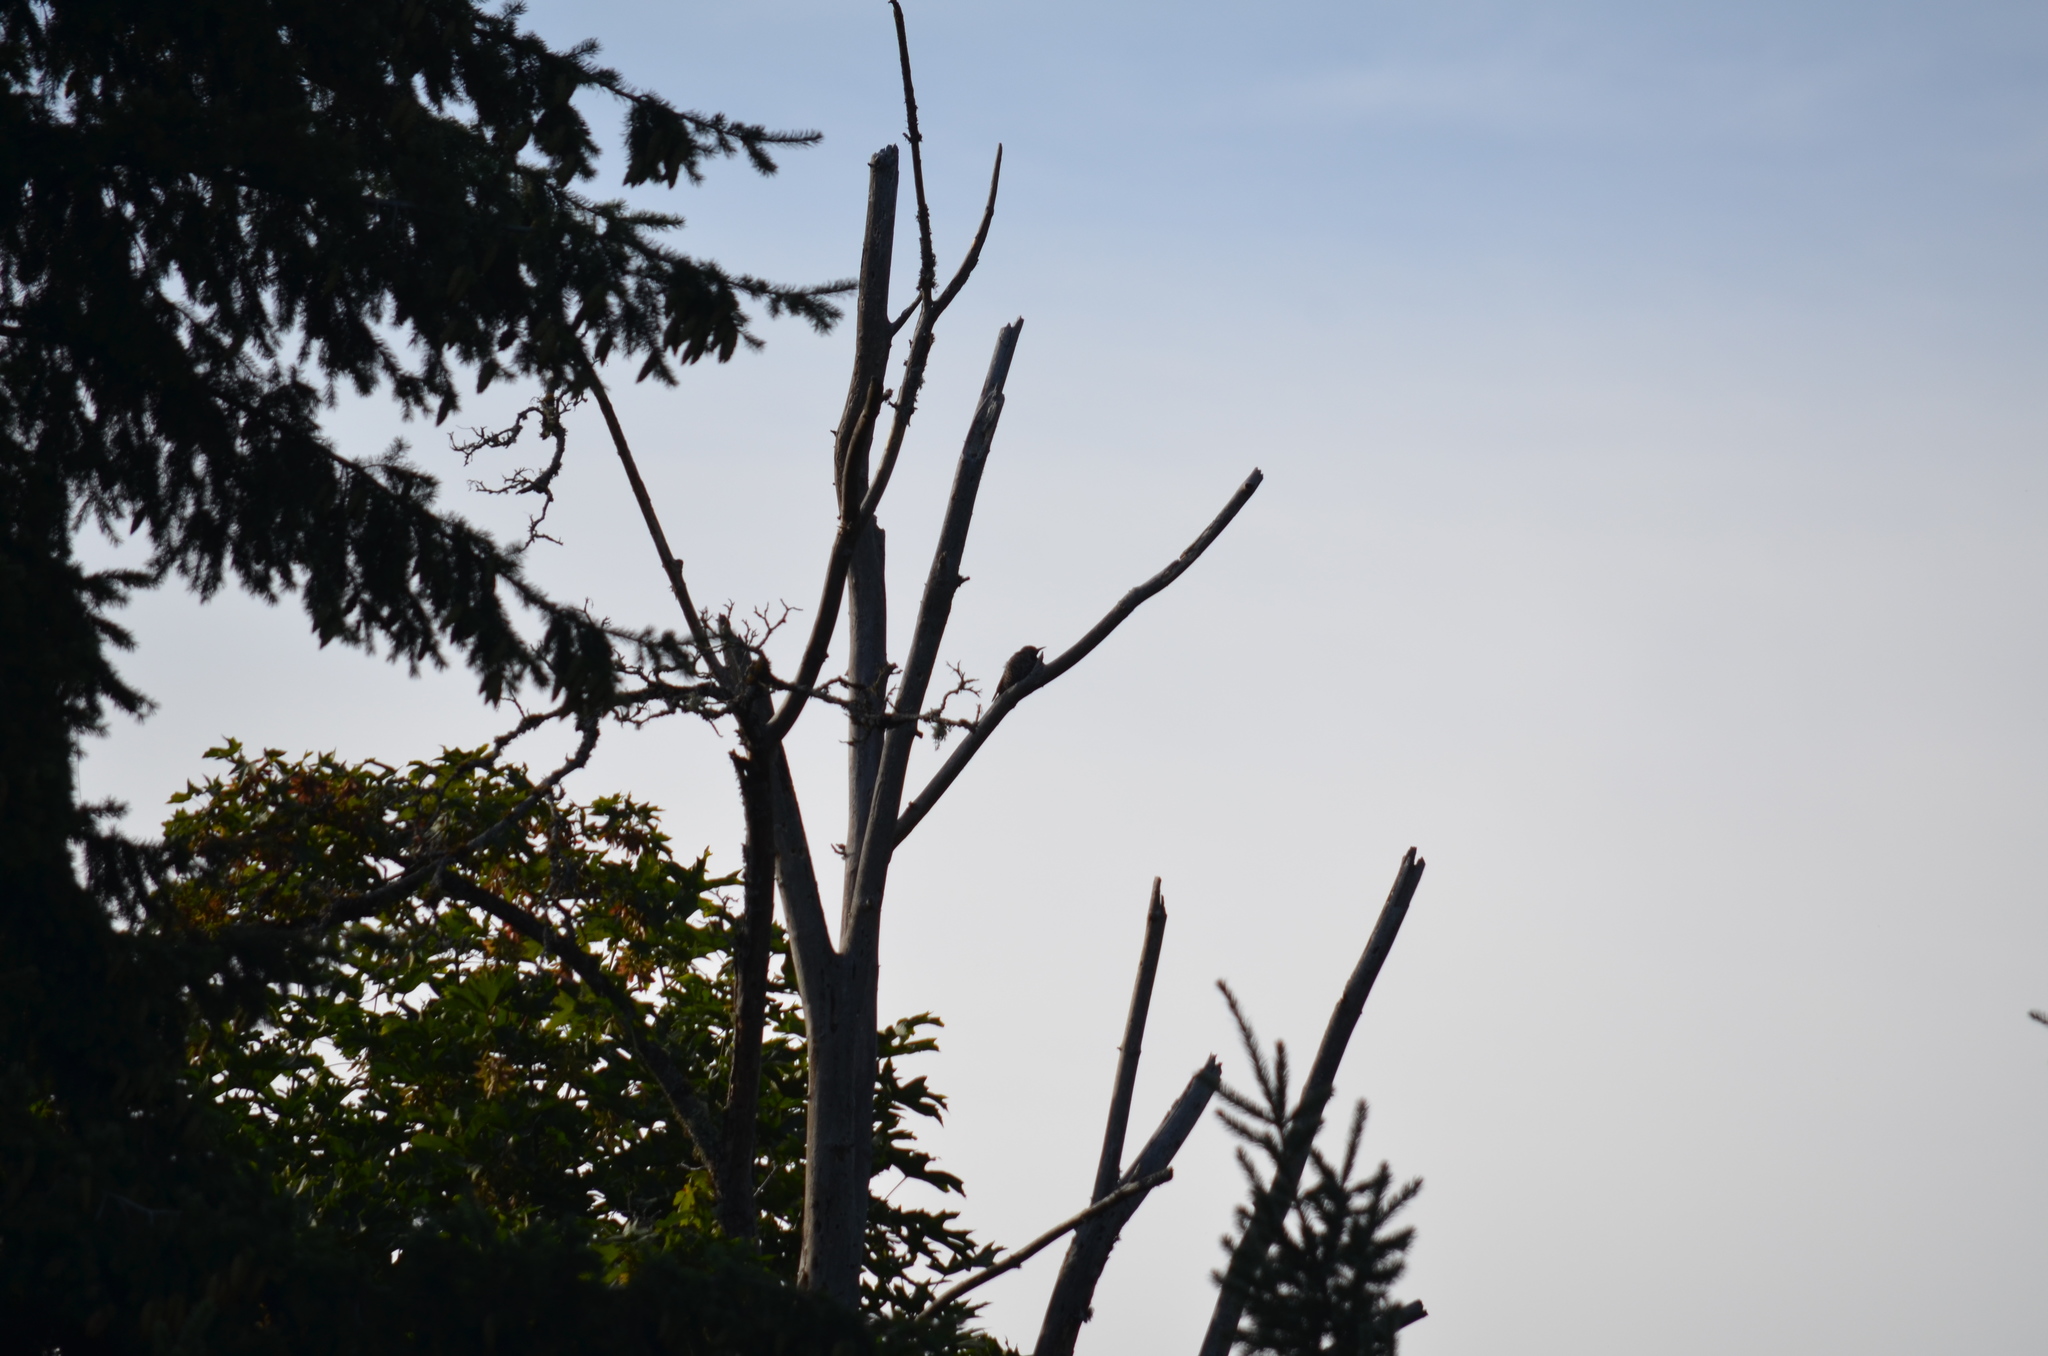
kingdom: Animalia
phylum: Chordata
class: Aves
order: Piciformes
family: Picidae
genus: Colaptes
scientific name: Colaptes auratus
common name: Northern flicker
